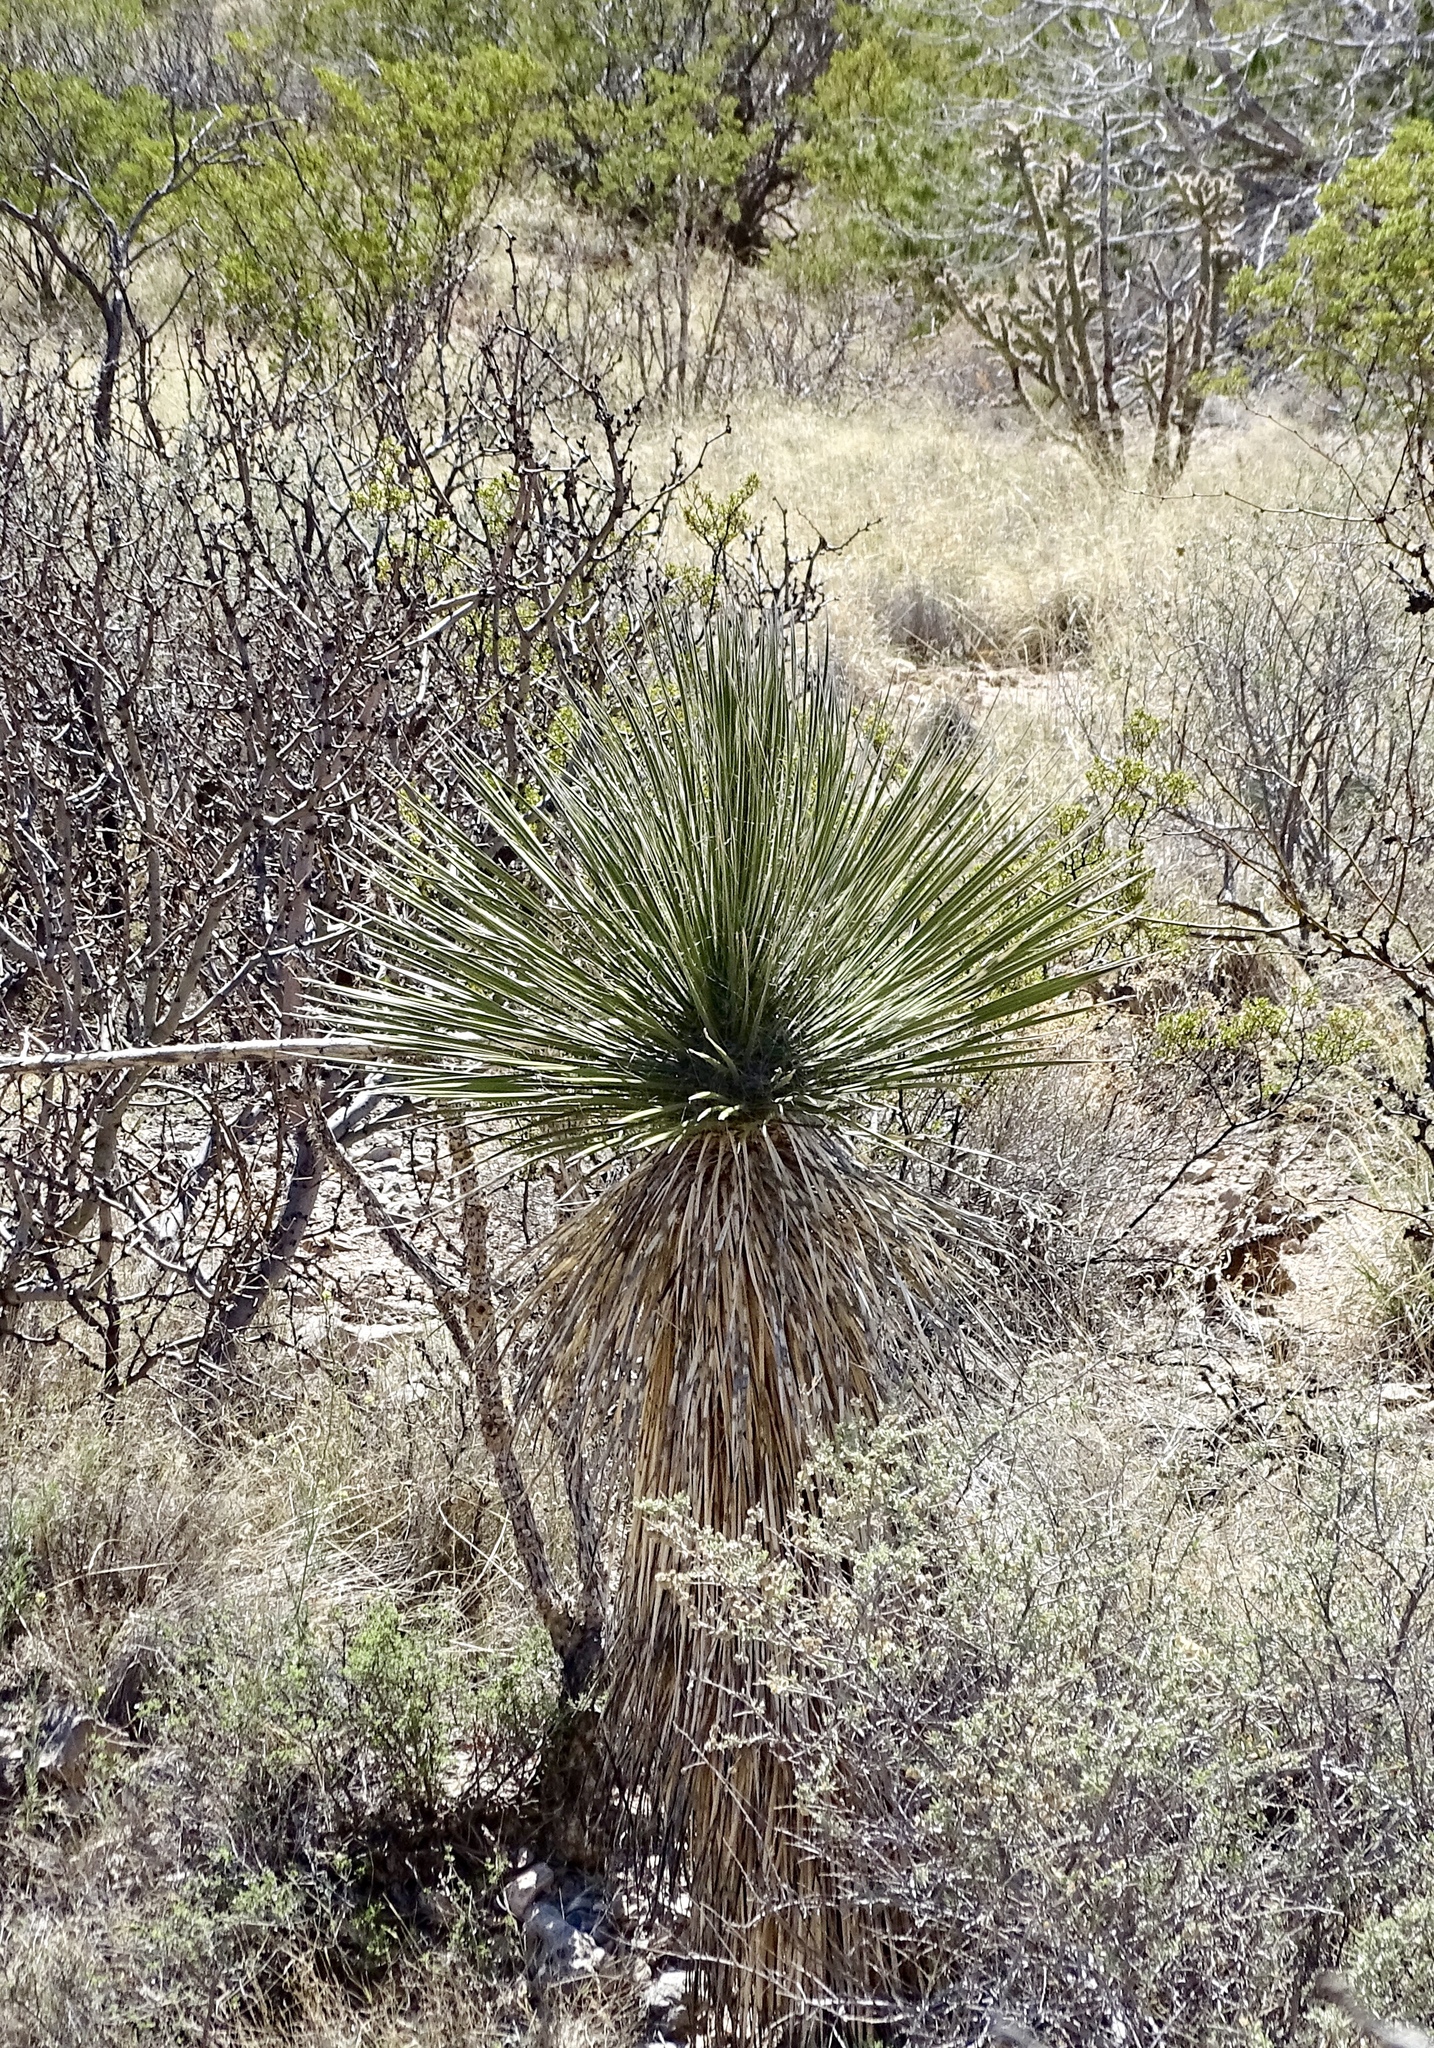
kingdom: Plantae
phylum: Tracheophyta
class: Liliopsida
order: Asparagales
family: Asparagaceae
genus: Yucca
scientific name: Yucca elata
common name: Palmella
